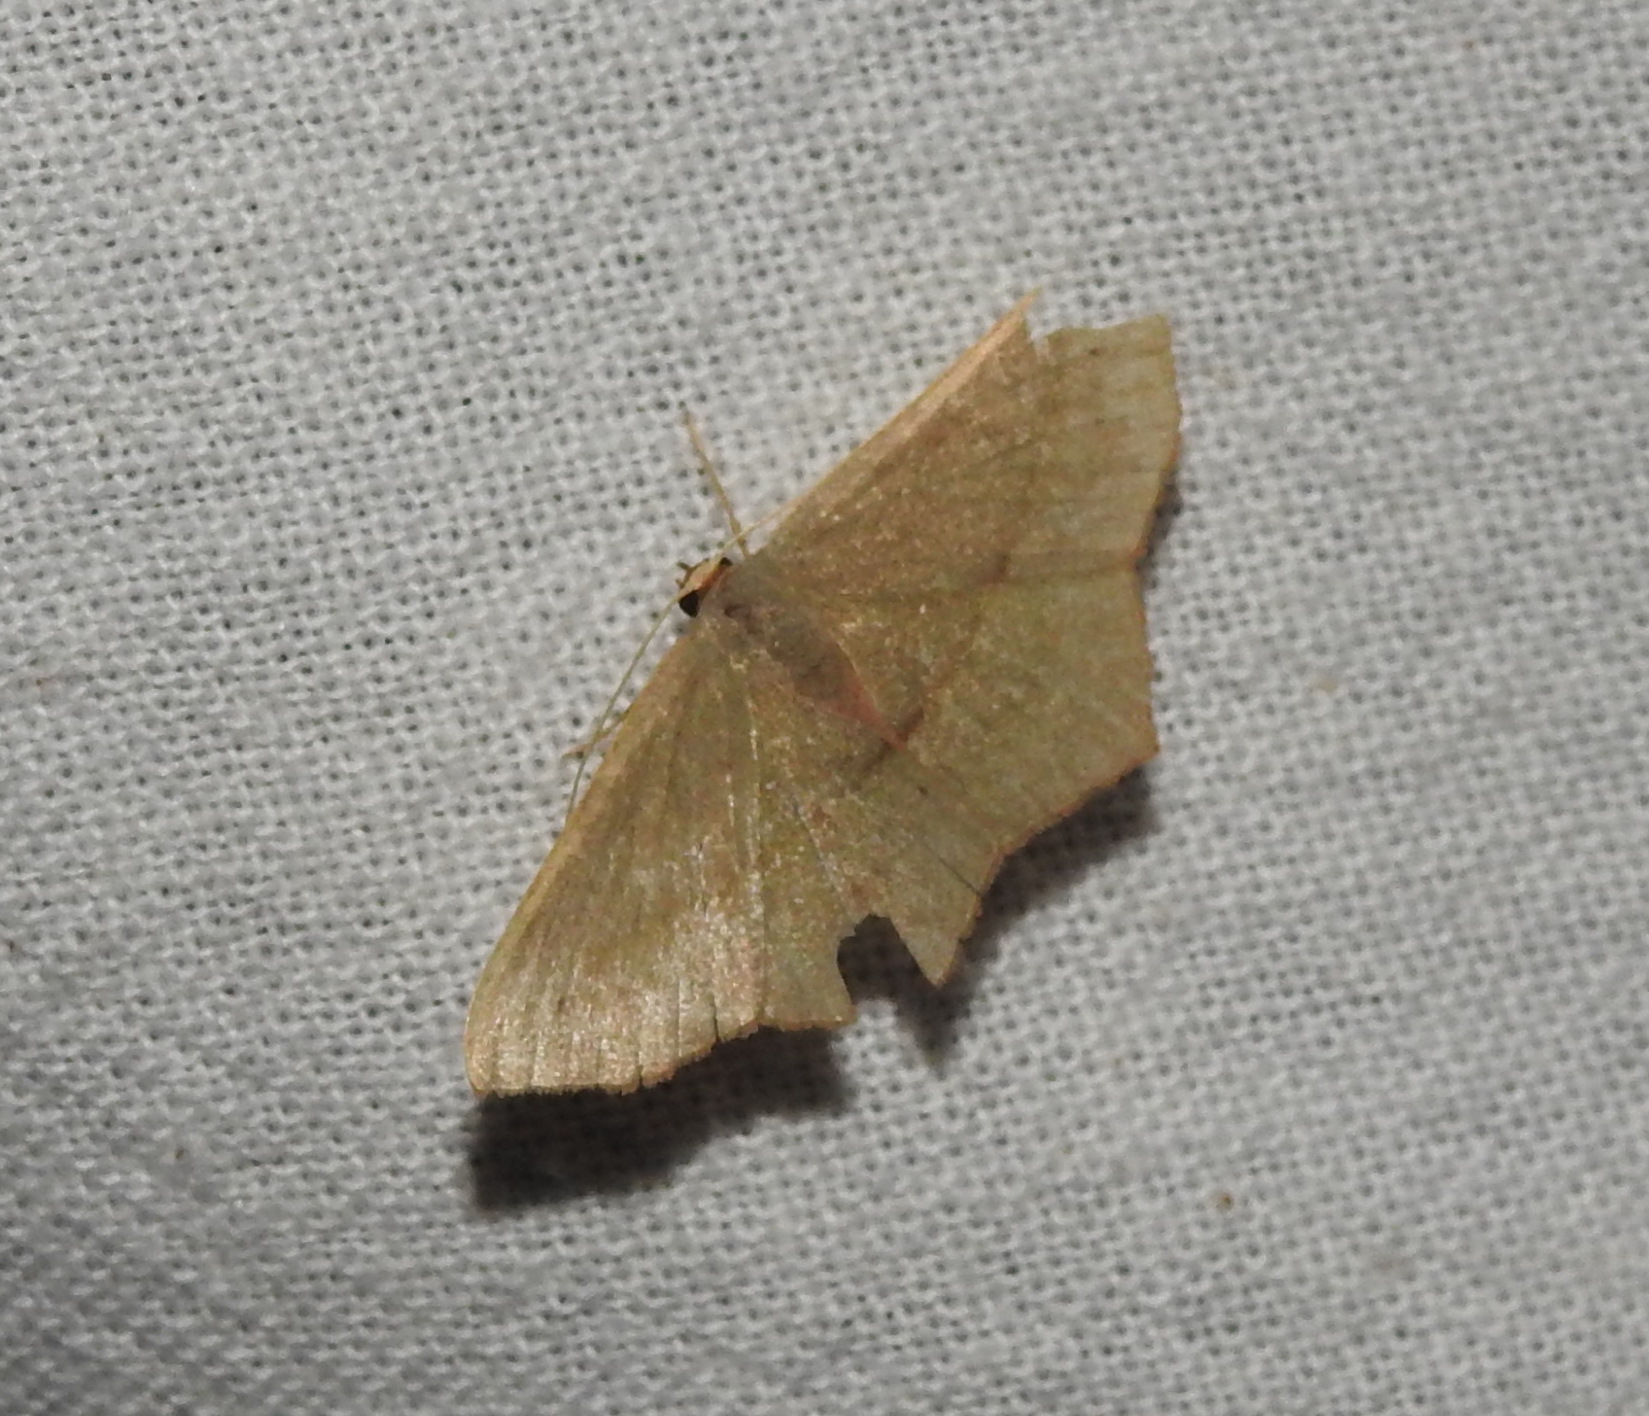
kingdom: Animalia
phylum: Arthropoda
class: Insecta
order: Lepidoptera
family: Geometridae
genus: Traminda
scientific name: Traminda mundissima
